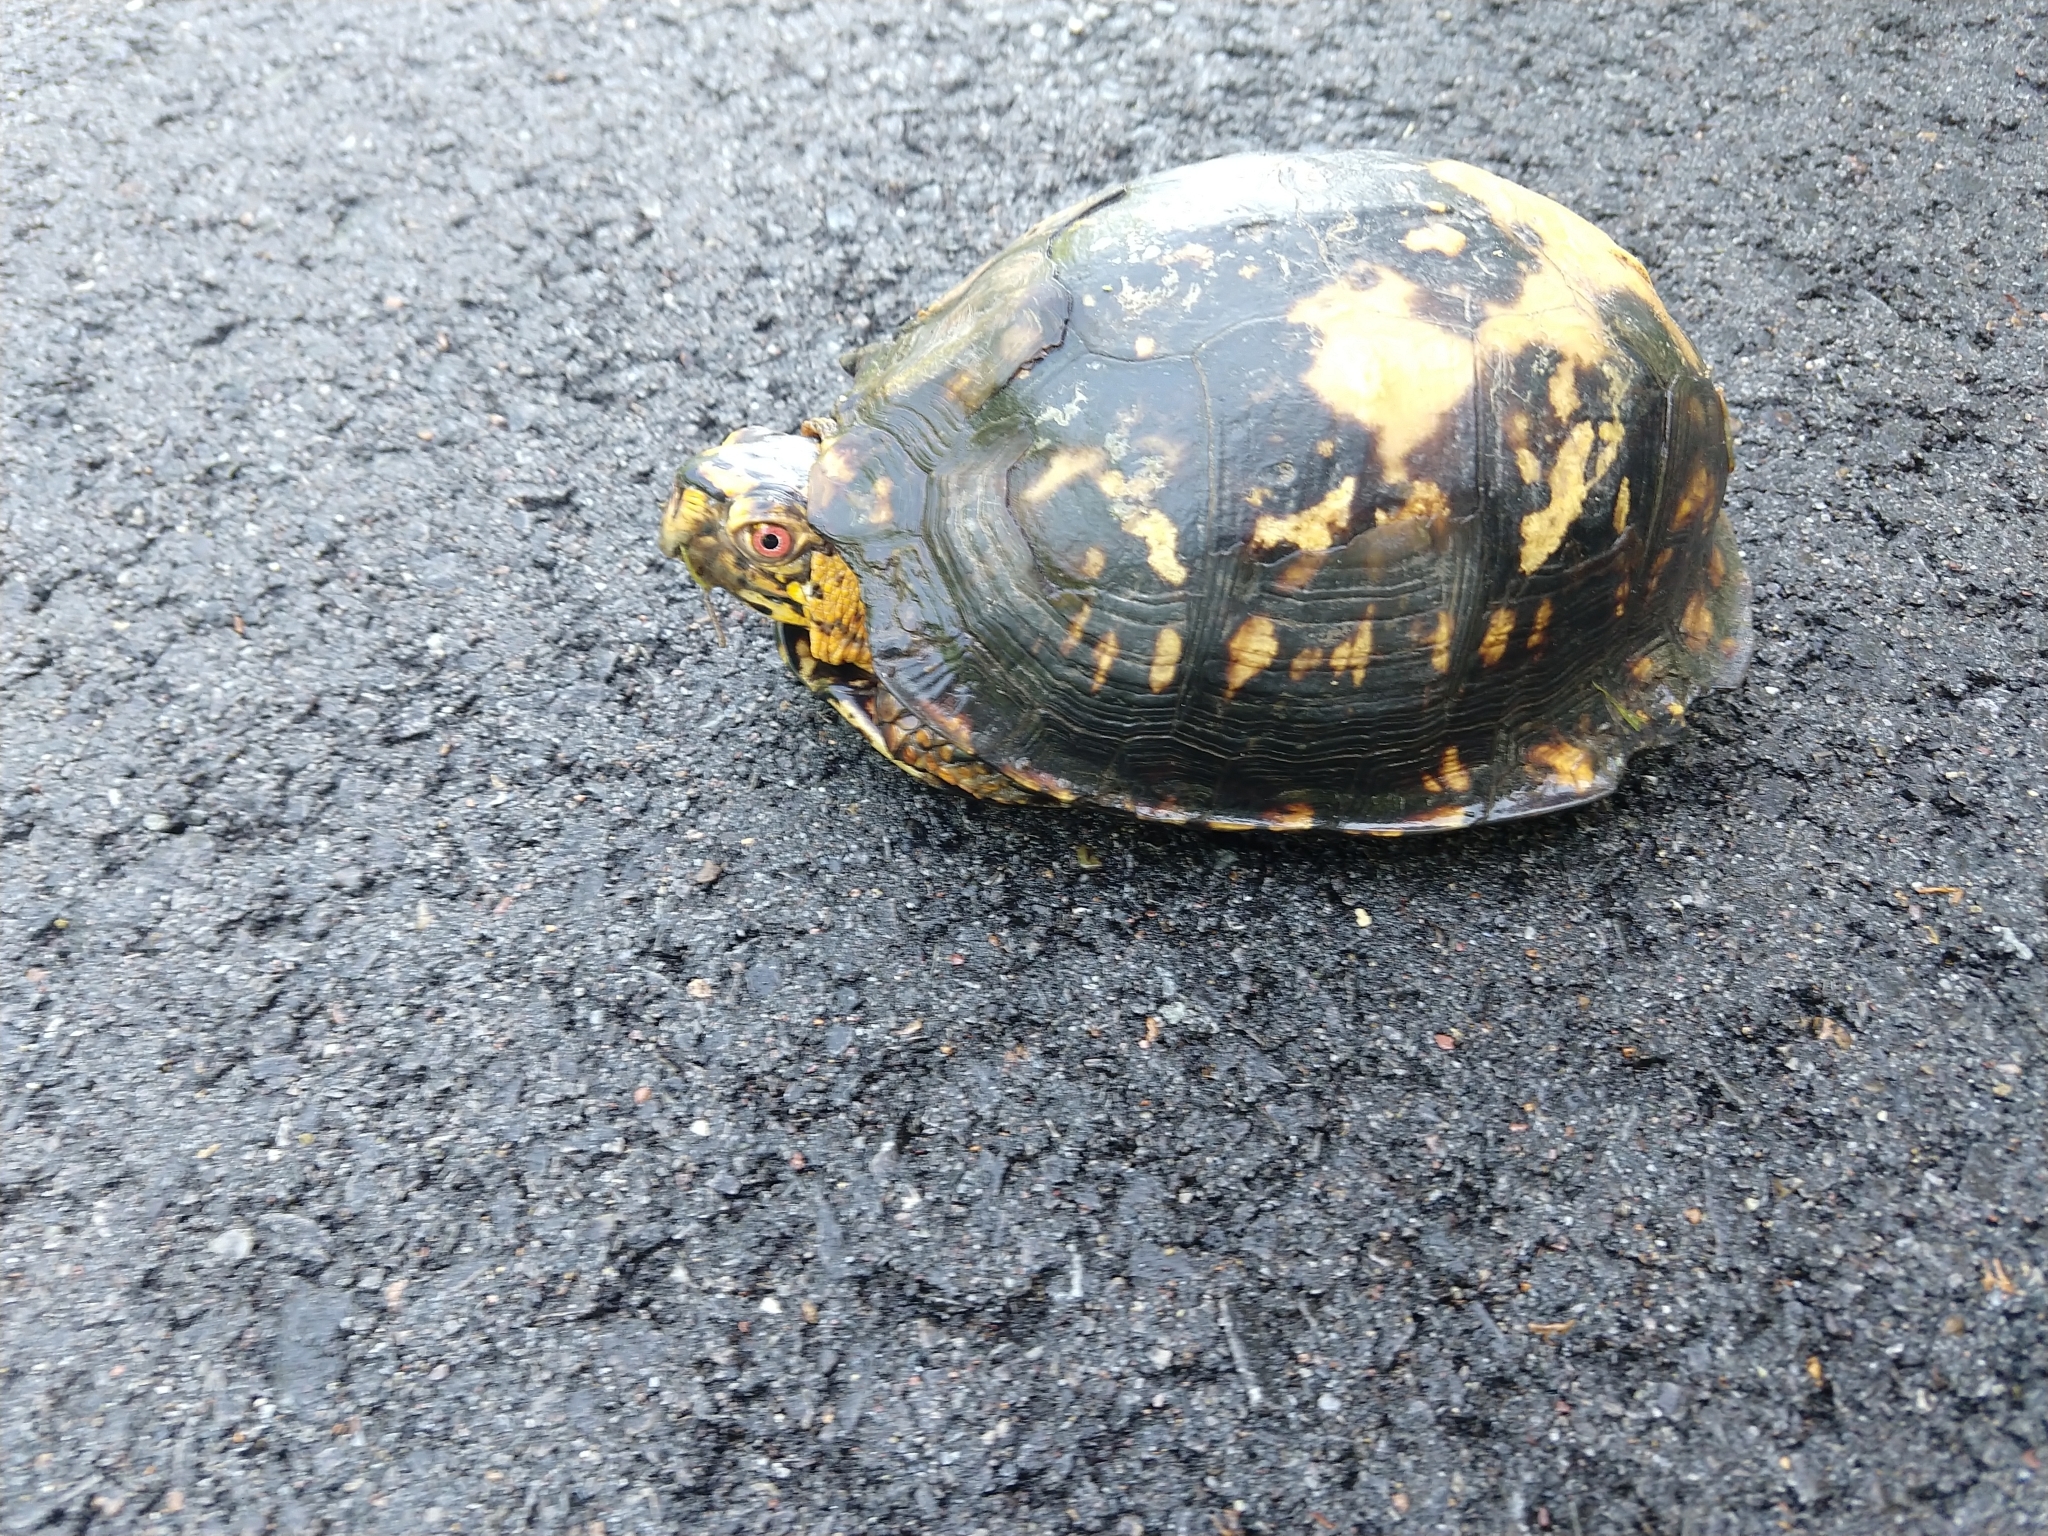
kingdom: Animalia
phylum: Chordata
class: Testudines
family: Emydidae
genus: Terrapene
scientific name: Terrapene carolina
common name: Common box turtle
